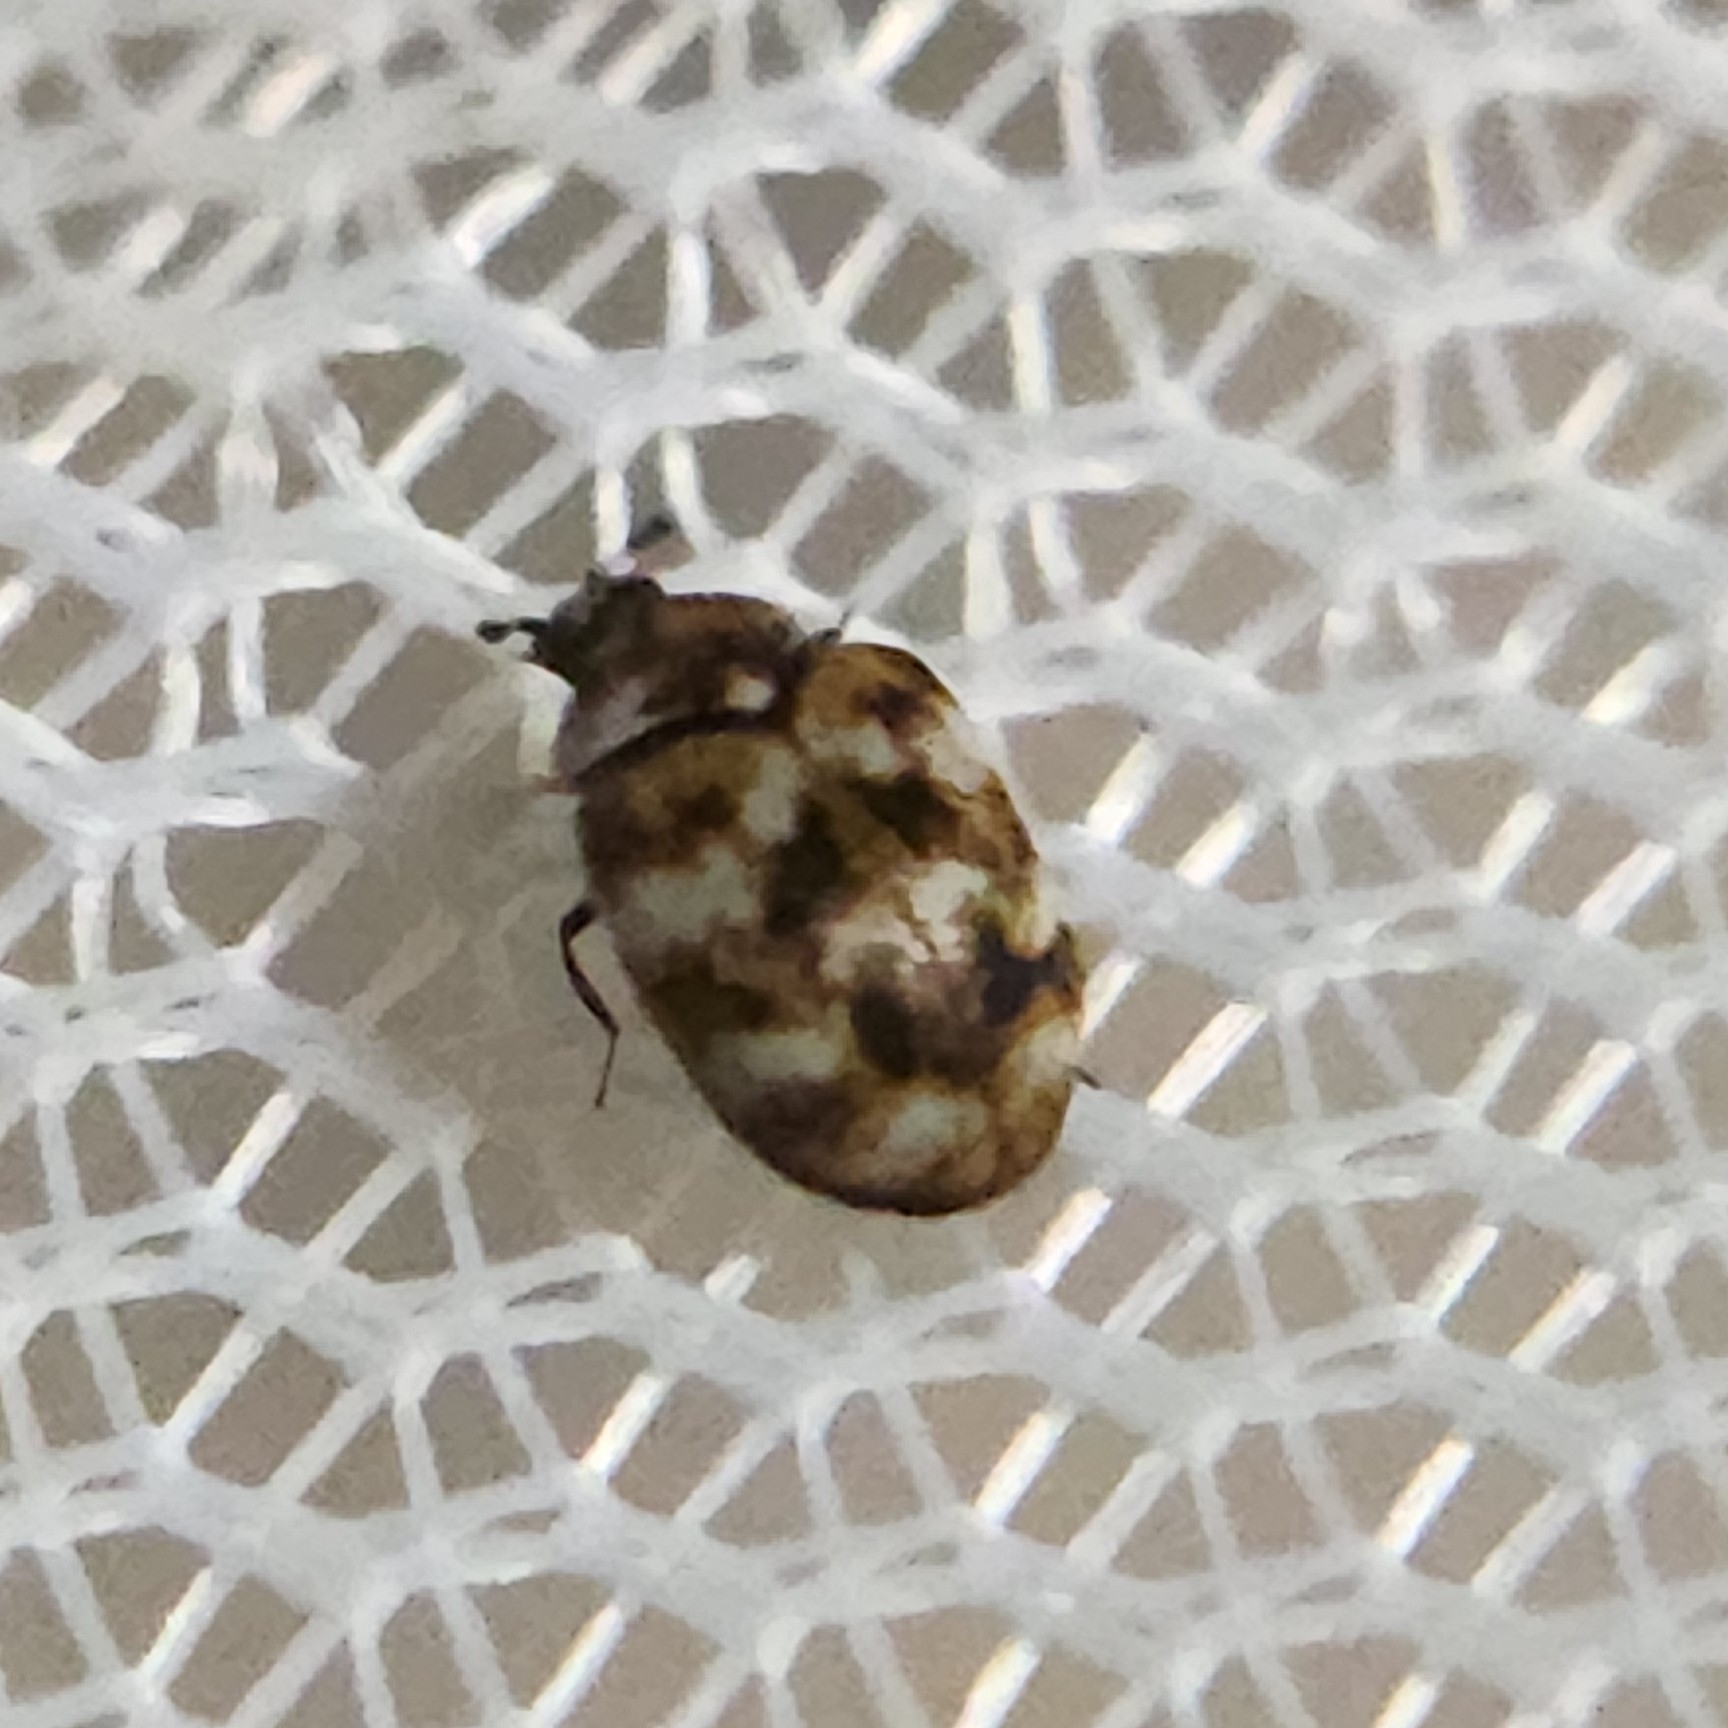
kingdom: Animalia
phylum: Arthropoda
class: Insecta
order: Coleoptera
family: Dermestidae
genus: Anthrenus
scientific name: Anthrenus verbasci
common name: Varied carpet beetle
